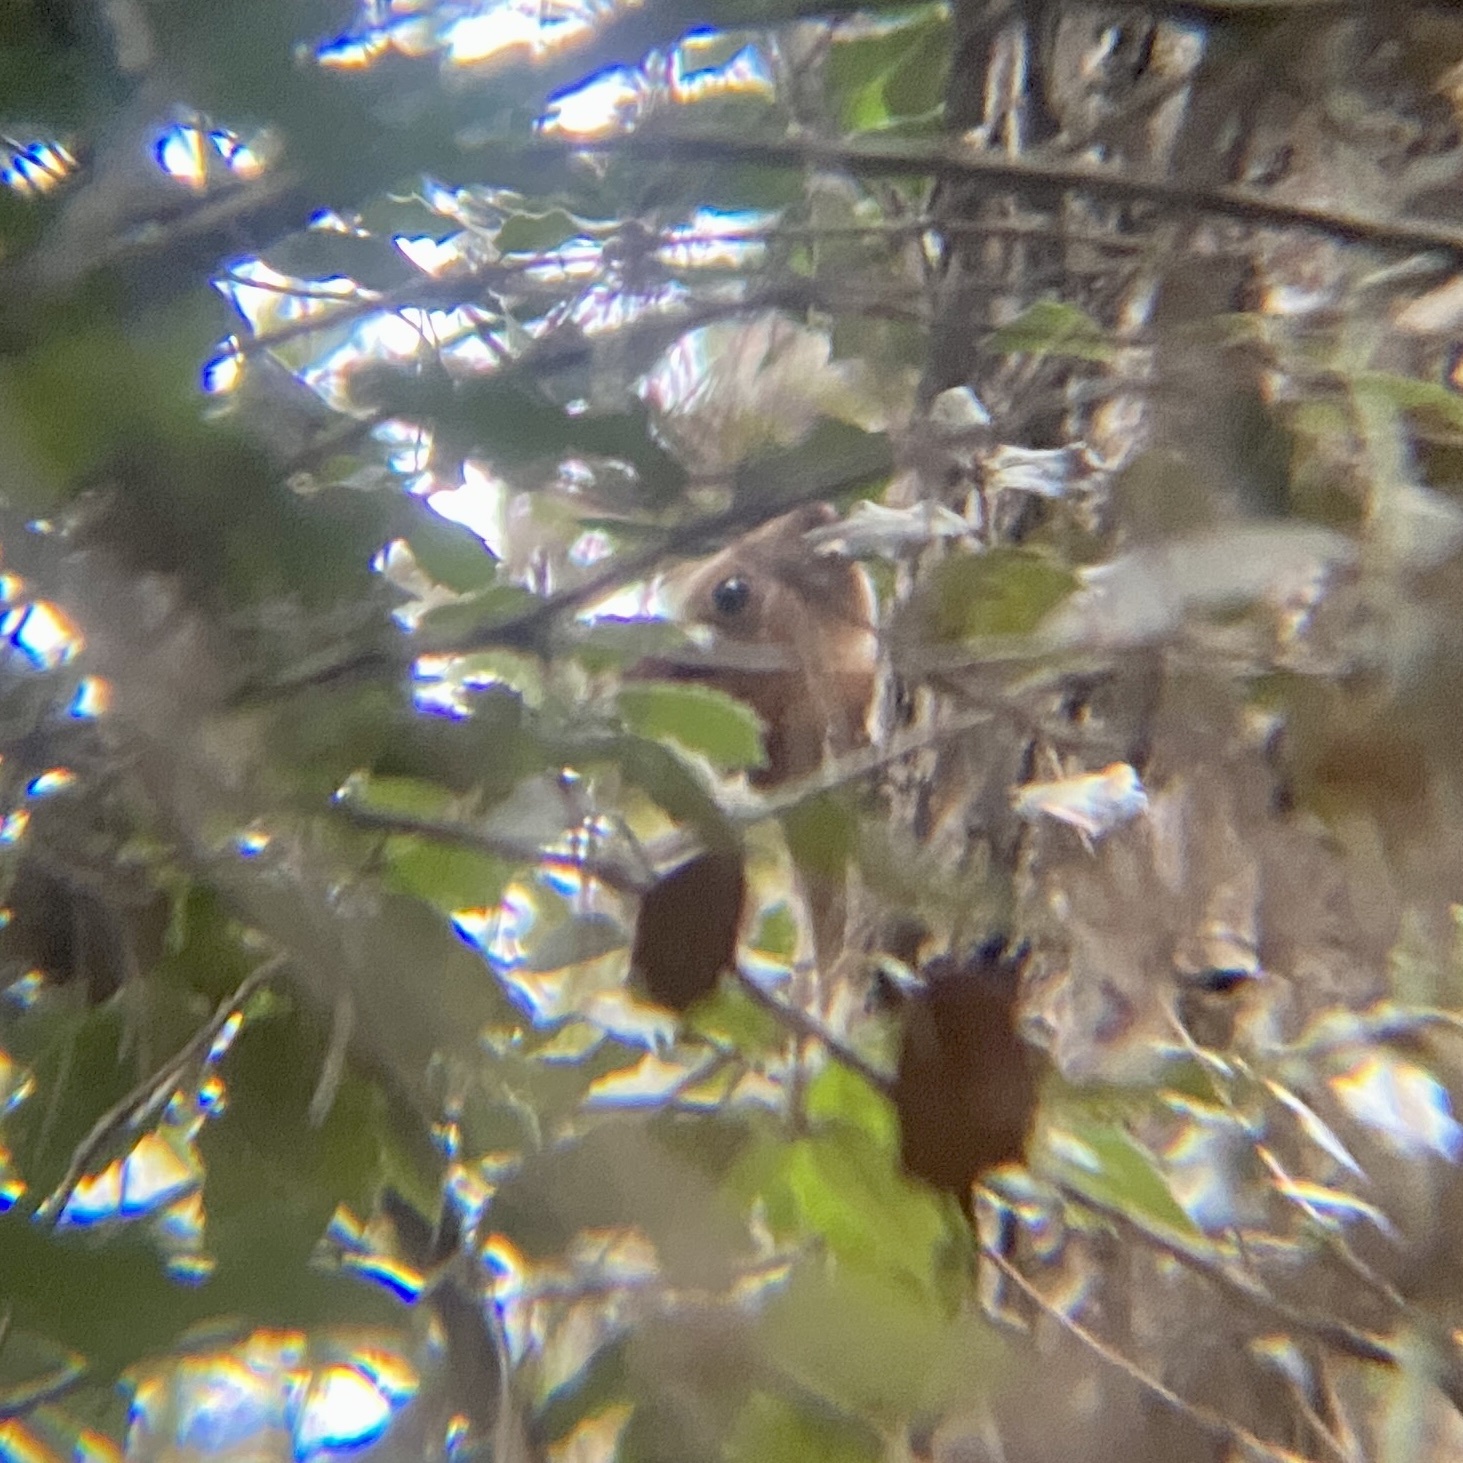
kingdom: Animalia
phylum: Chordata
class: Mammalia
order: Rodentia
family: Sciuridae
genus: Sciurus
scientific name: Sciurus vulgaris
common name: Eurasian red squirrel
